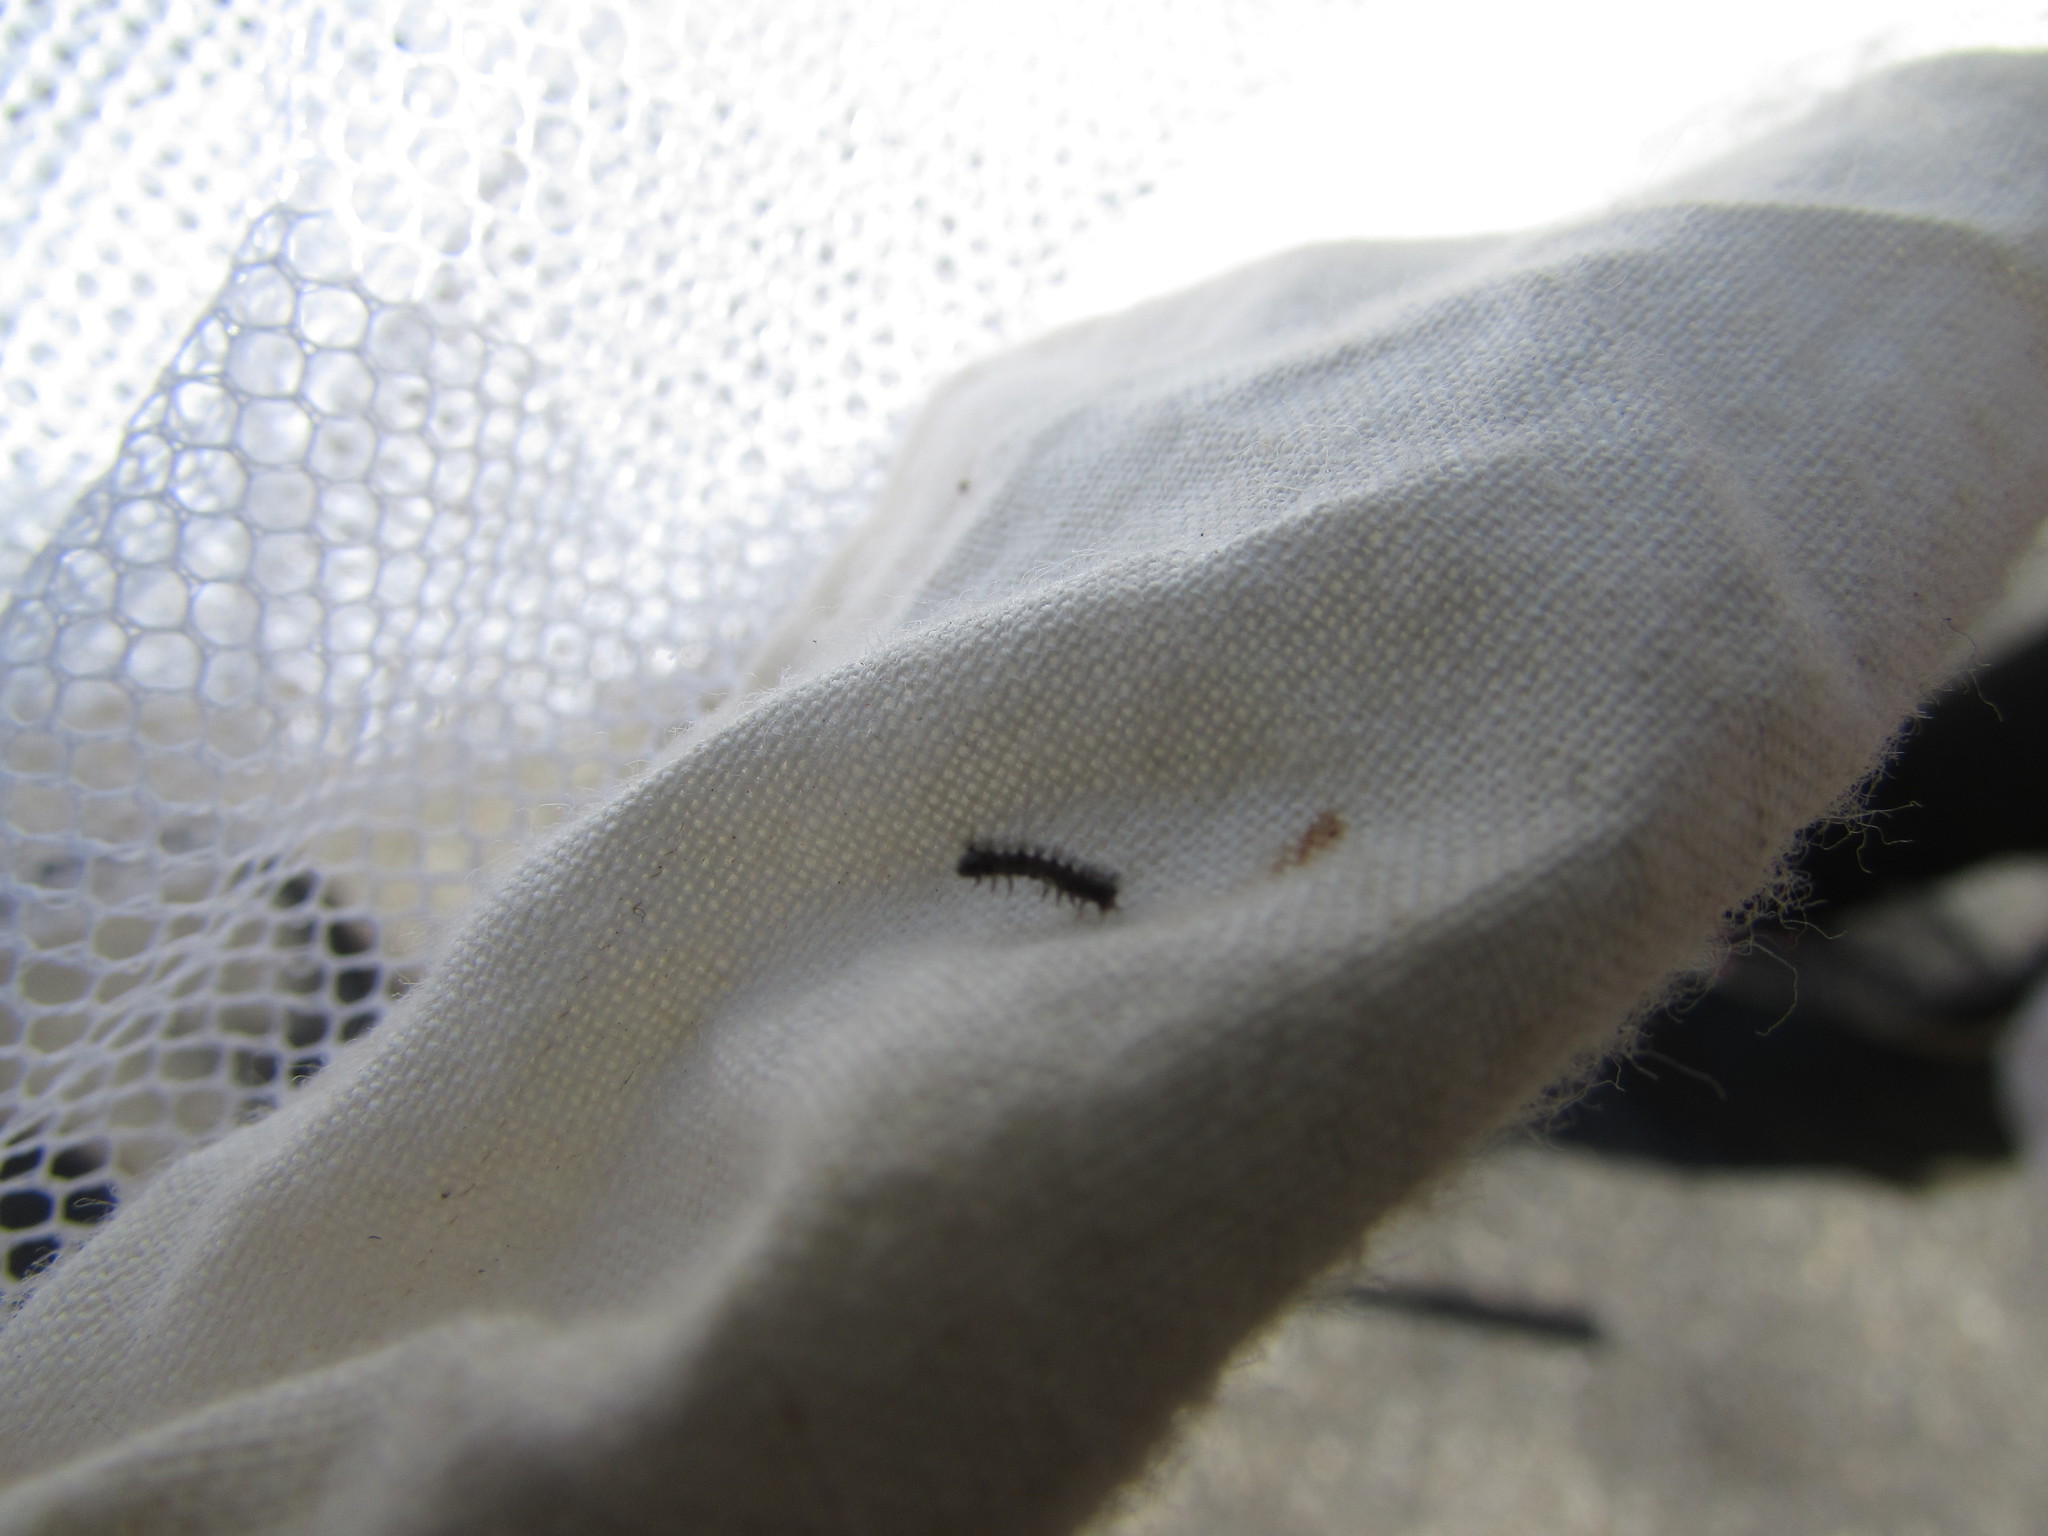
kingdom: Animalia
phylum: Arthropoda
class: Insecta
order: Lepidoptera
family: Erebidae
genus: Lymantria
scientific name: Lymantria dispar
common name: Gypsy moth
